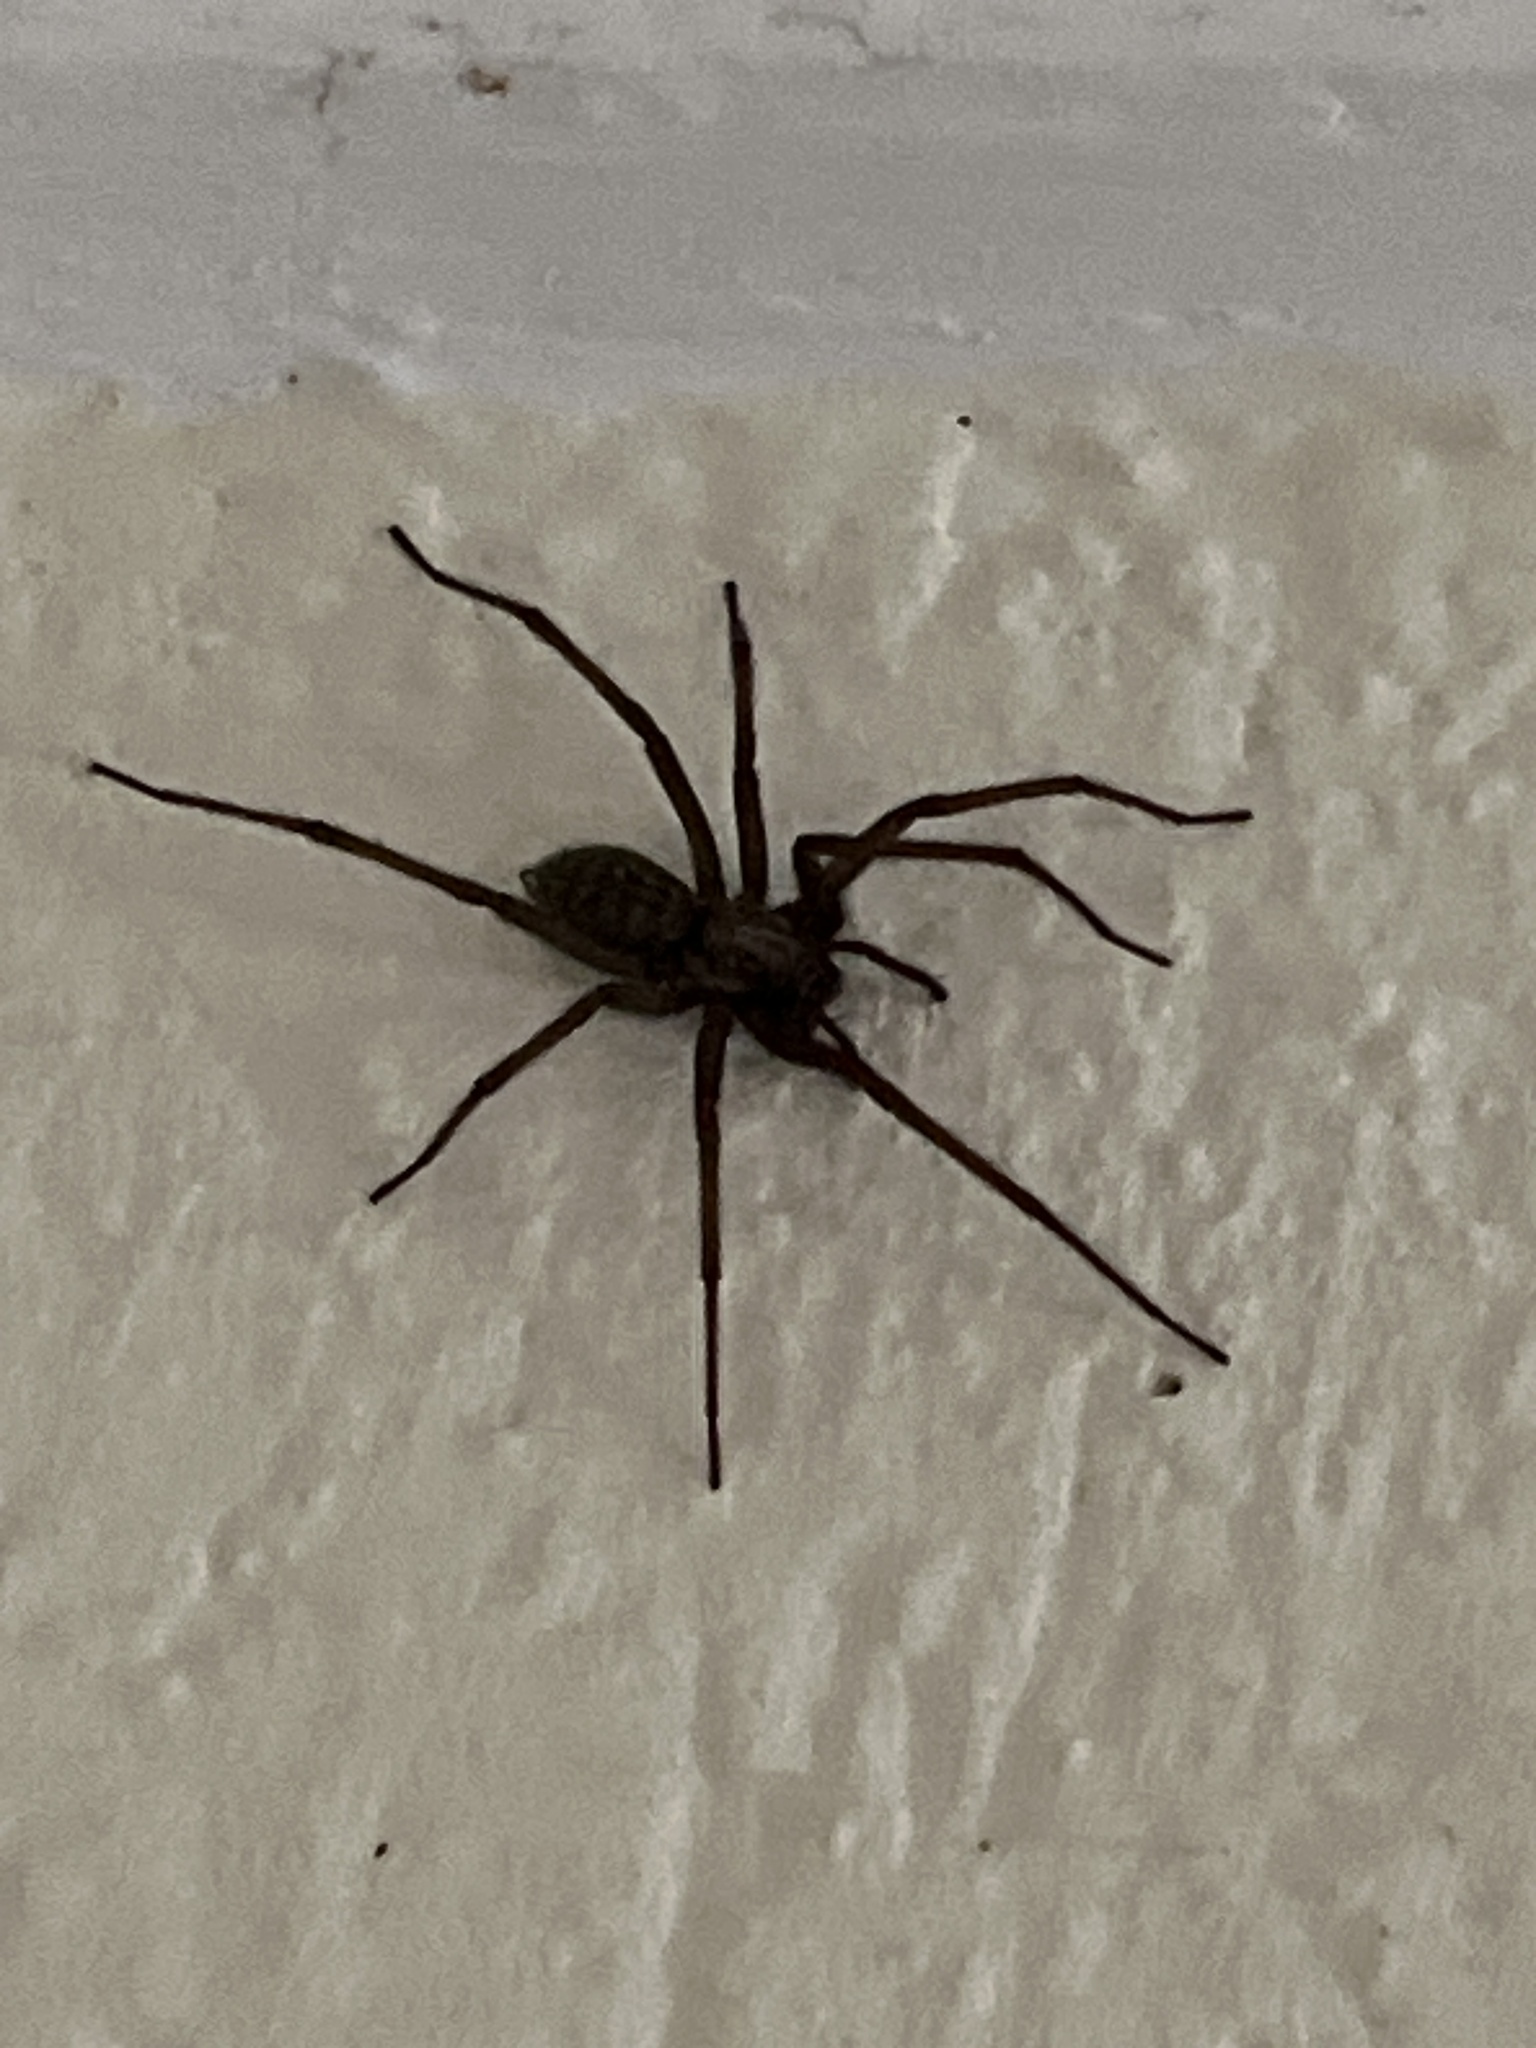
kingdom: Animalia
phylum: Arthropoda
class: Arachnida
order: Araneae
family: Agelenidae
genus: Eratigena
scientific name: Eratigena atrica
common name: Giant house spider
